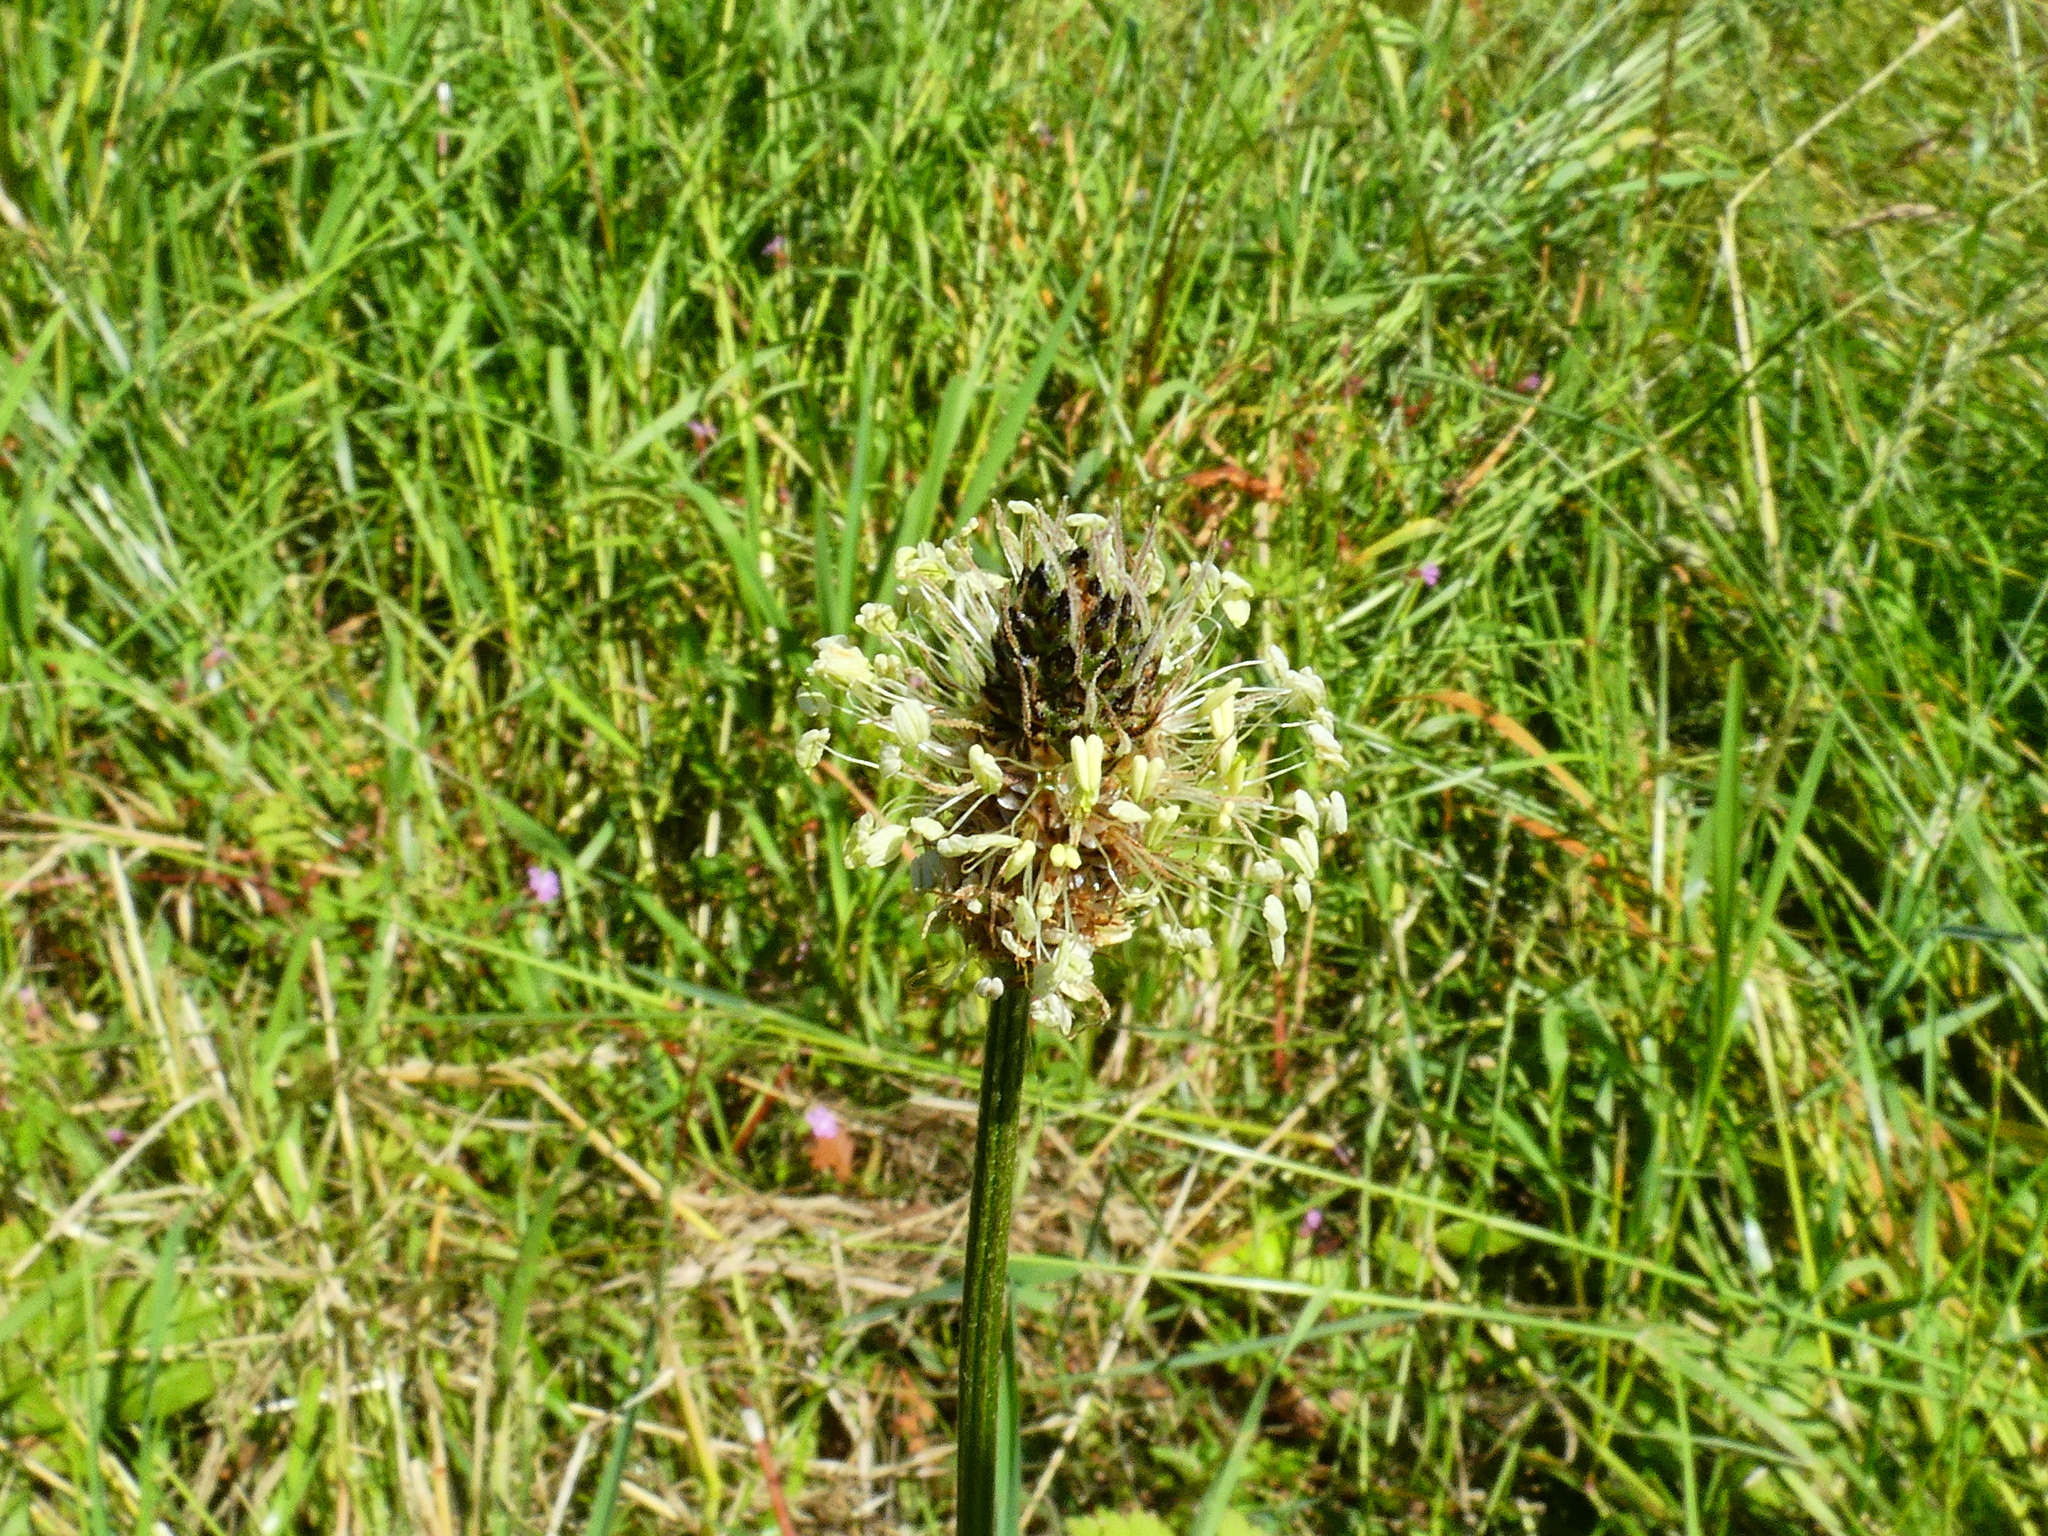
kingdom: Plantae
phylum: Tracheophyta
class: Magnoliopsida
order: Lamiales
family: Plantaginaceae
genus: Plantago
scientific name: Plantago lanceolata
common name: Ribwort plantain
